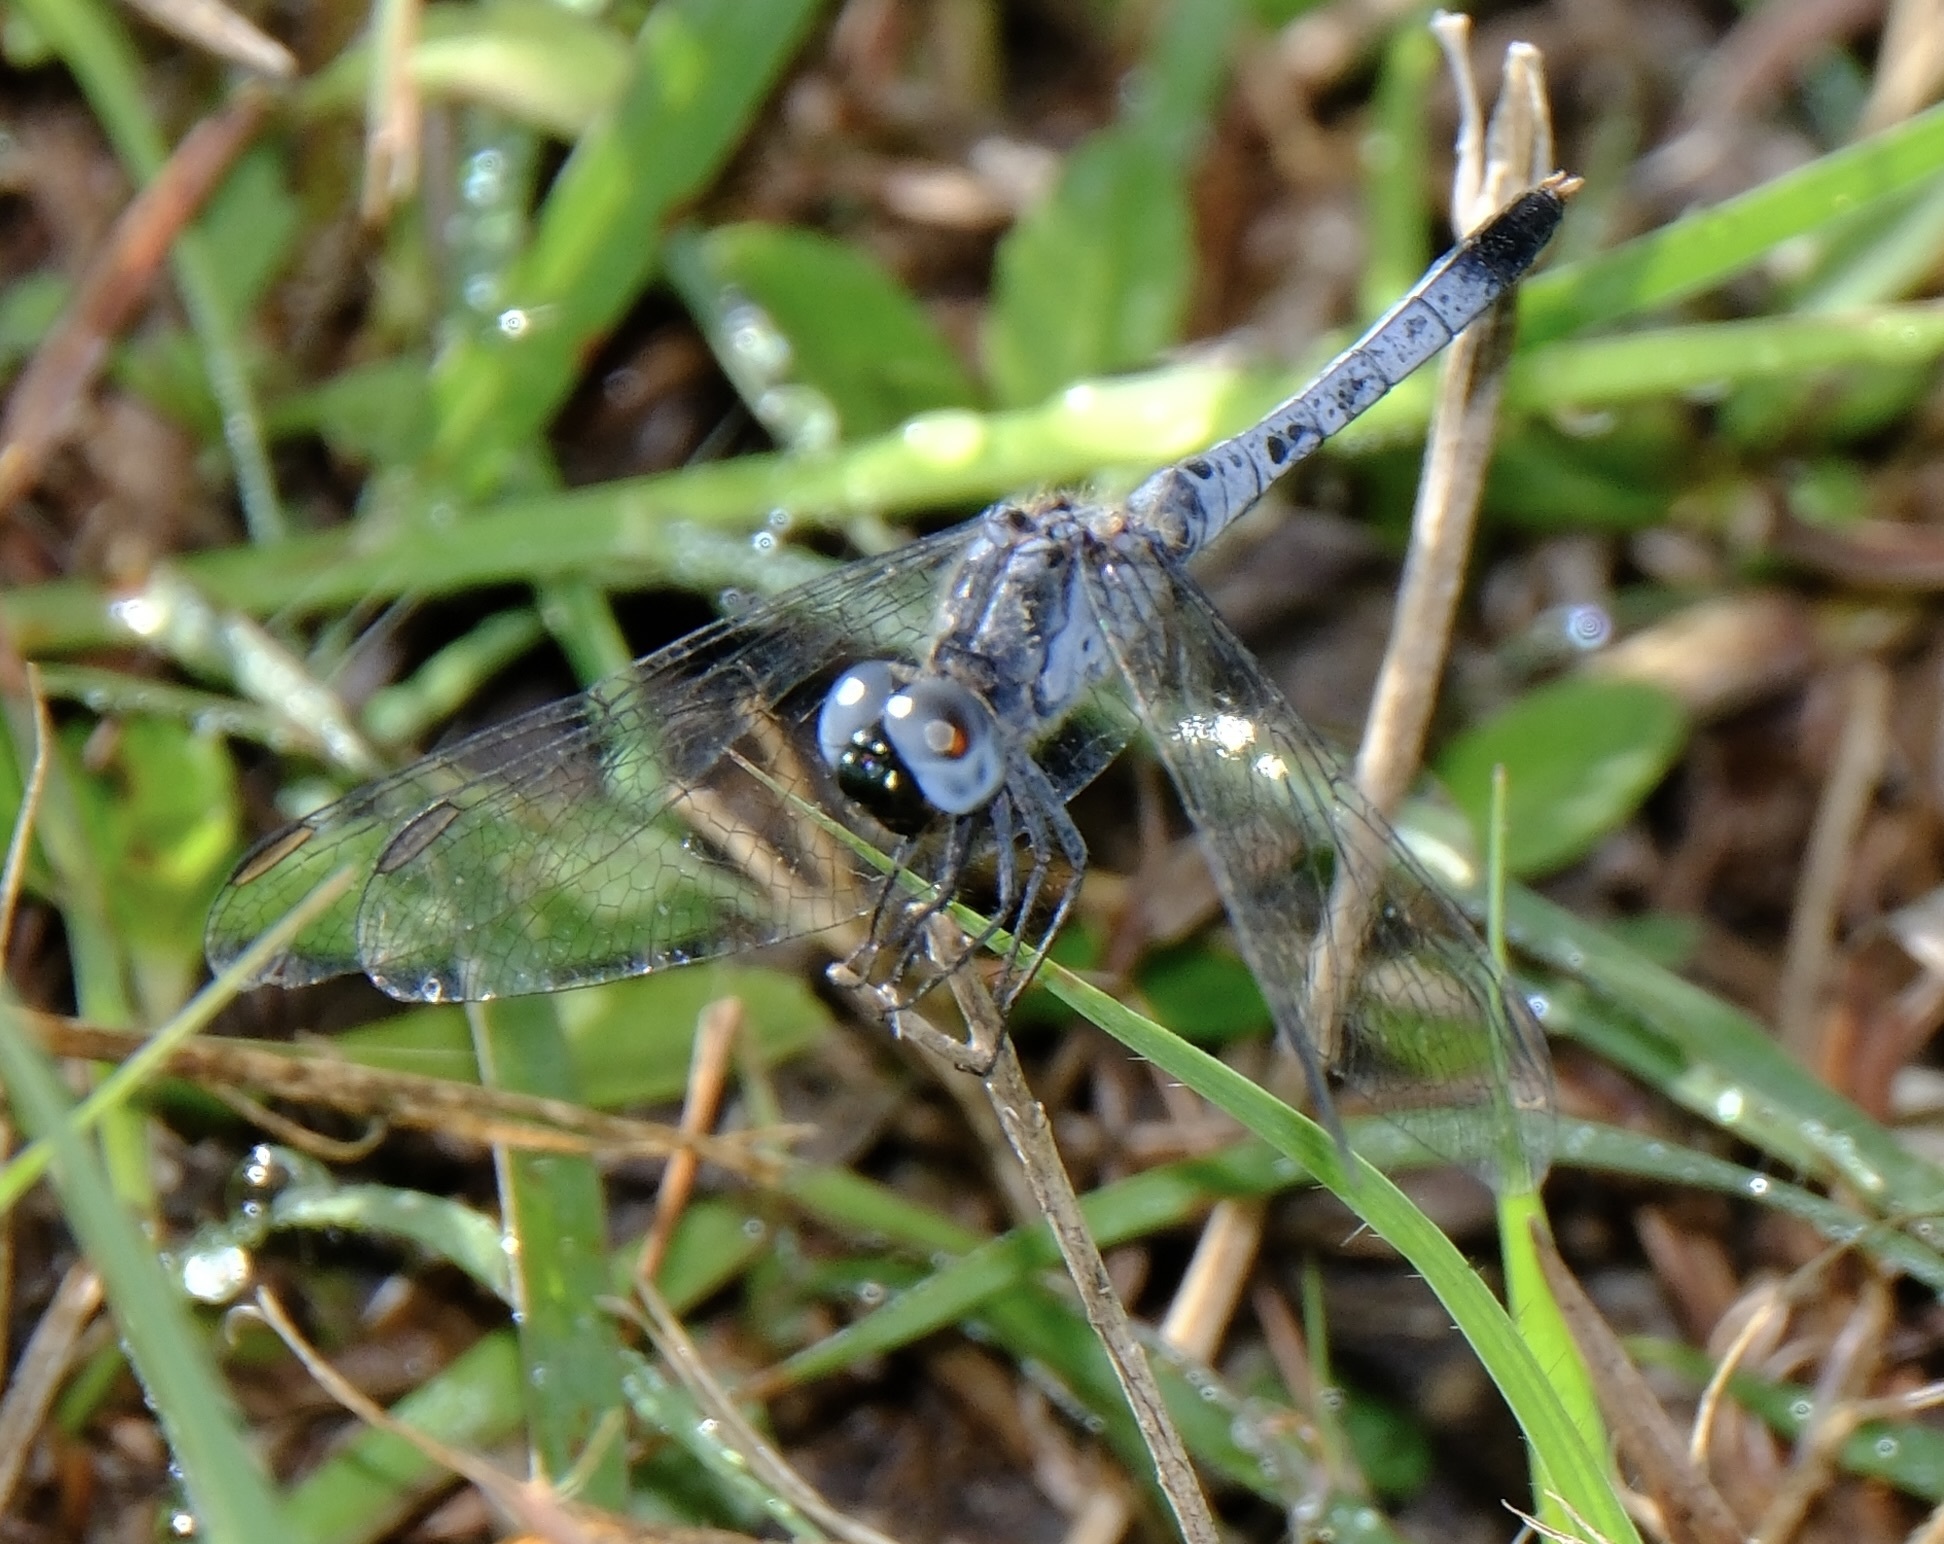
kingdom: Animalia
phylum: Arthropoda
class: Insecta
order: Odonata
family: Libellulidae
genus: Erythrodiplax
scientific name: Erythrodiplax minuscula
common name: Little blue dragonlet
